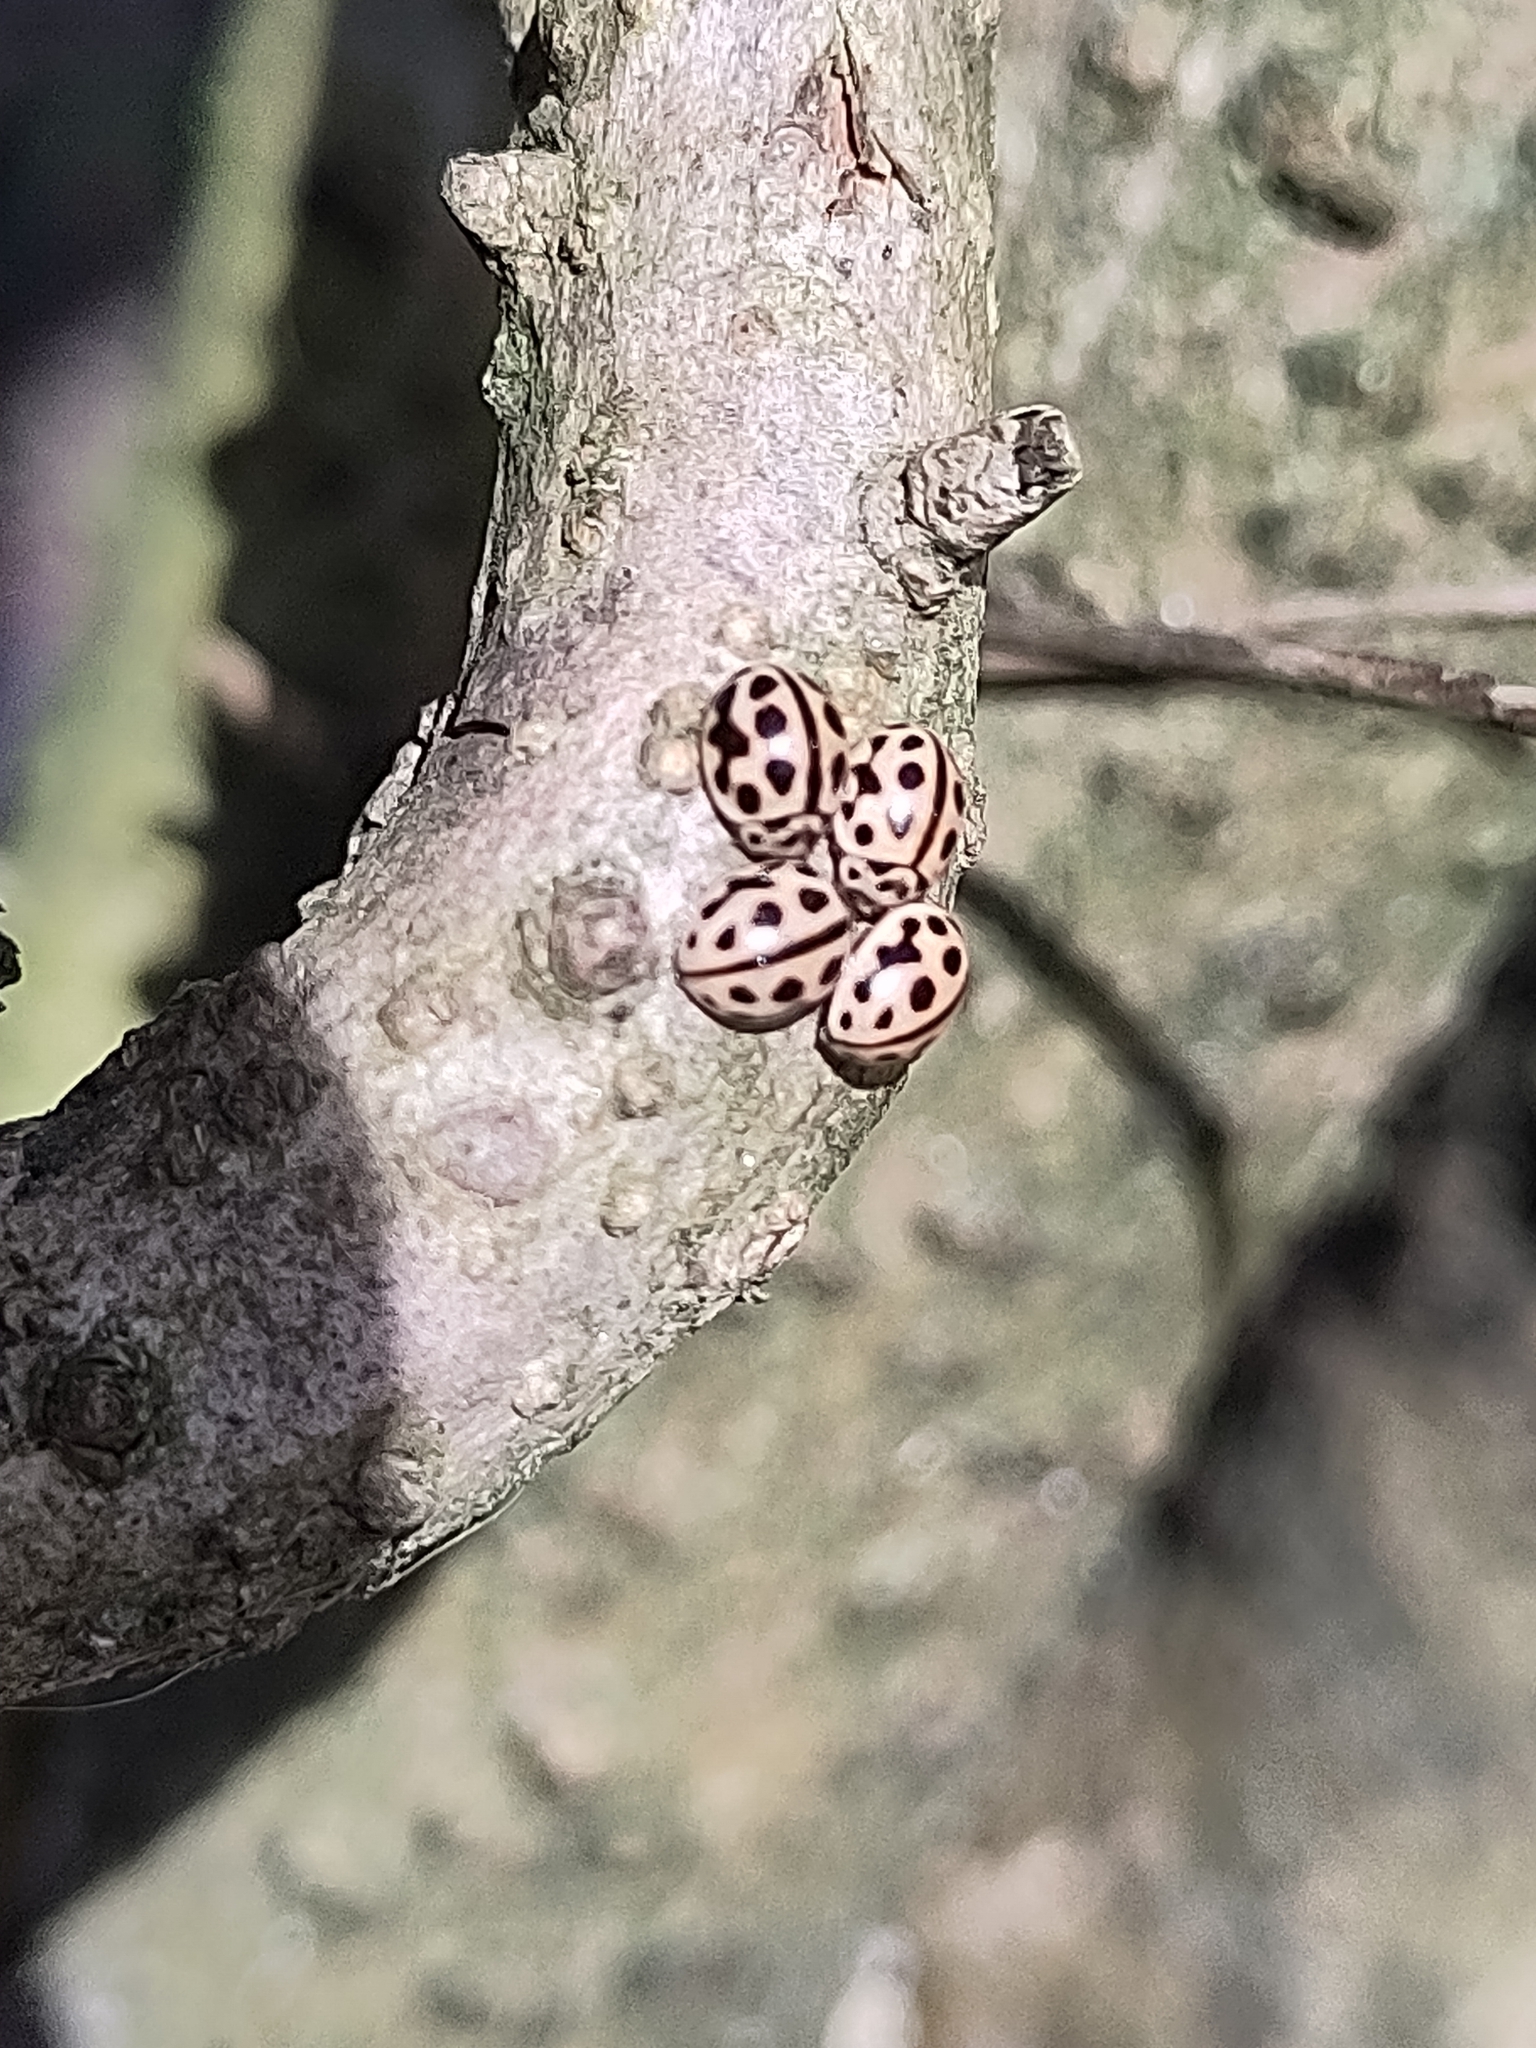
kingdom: Animalia
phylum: Arthropoda
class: Insecta
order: Coleoptera
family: Coccinellidae
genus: Tytthaspis
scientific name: Tytthaspis sedecimpunctata
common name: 16-spot ladybird
